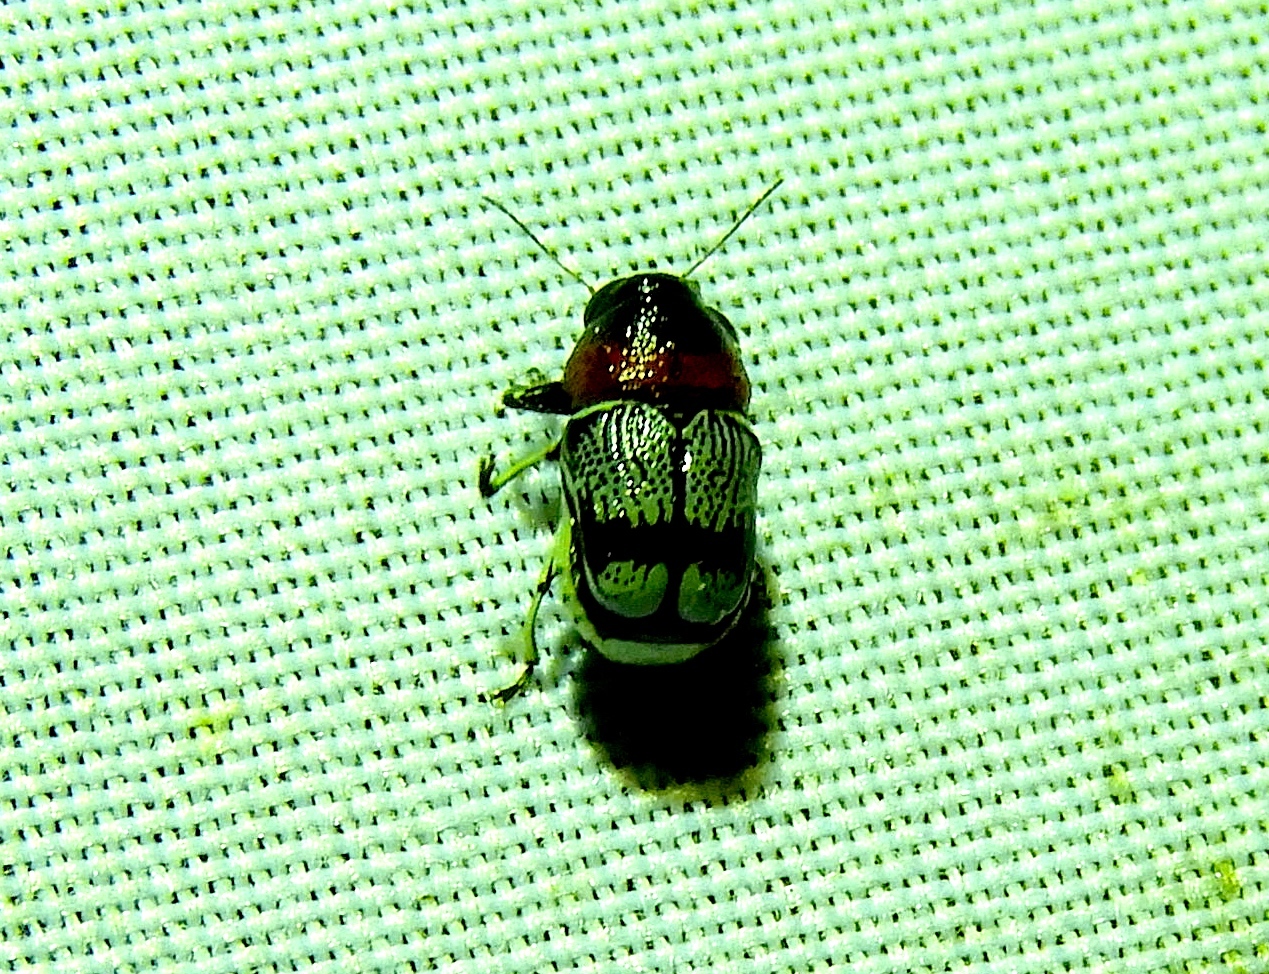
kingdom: Animalia
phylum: Arthropoda
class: Insecta
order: Coleoptera
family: Chrysomelidae
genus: Griburius
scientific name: Griburius montezuma
